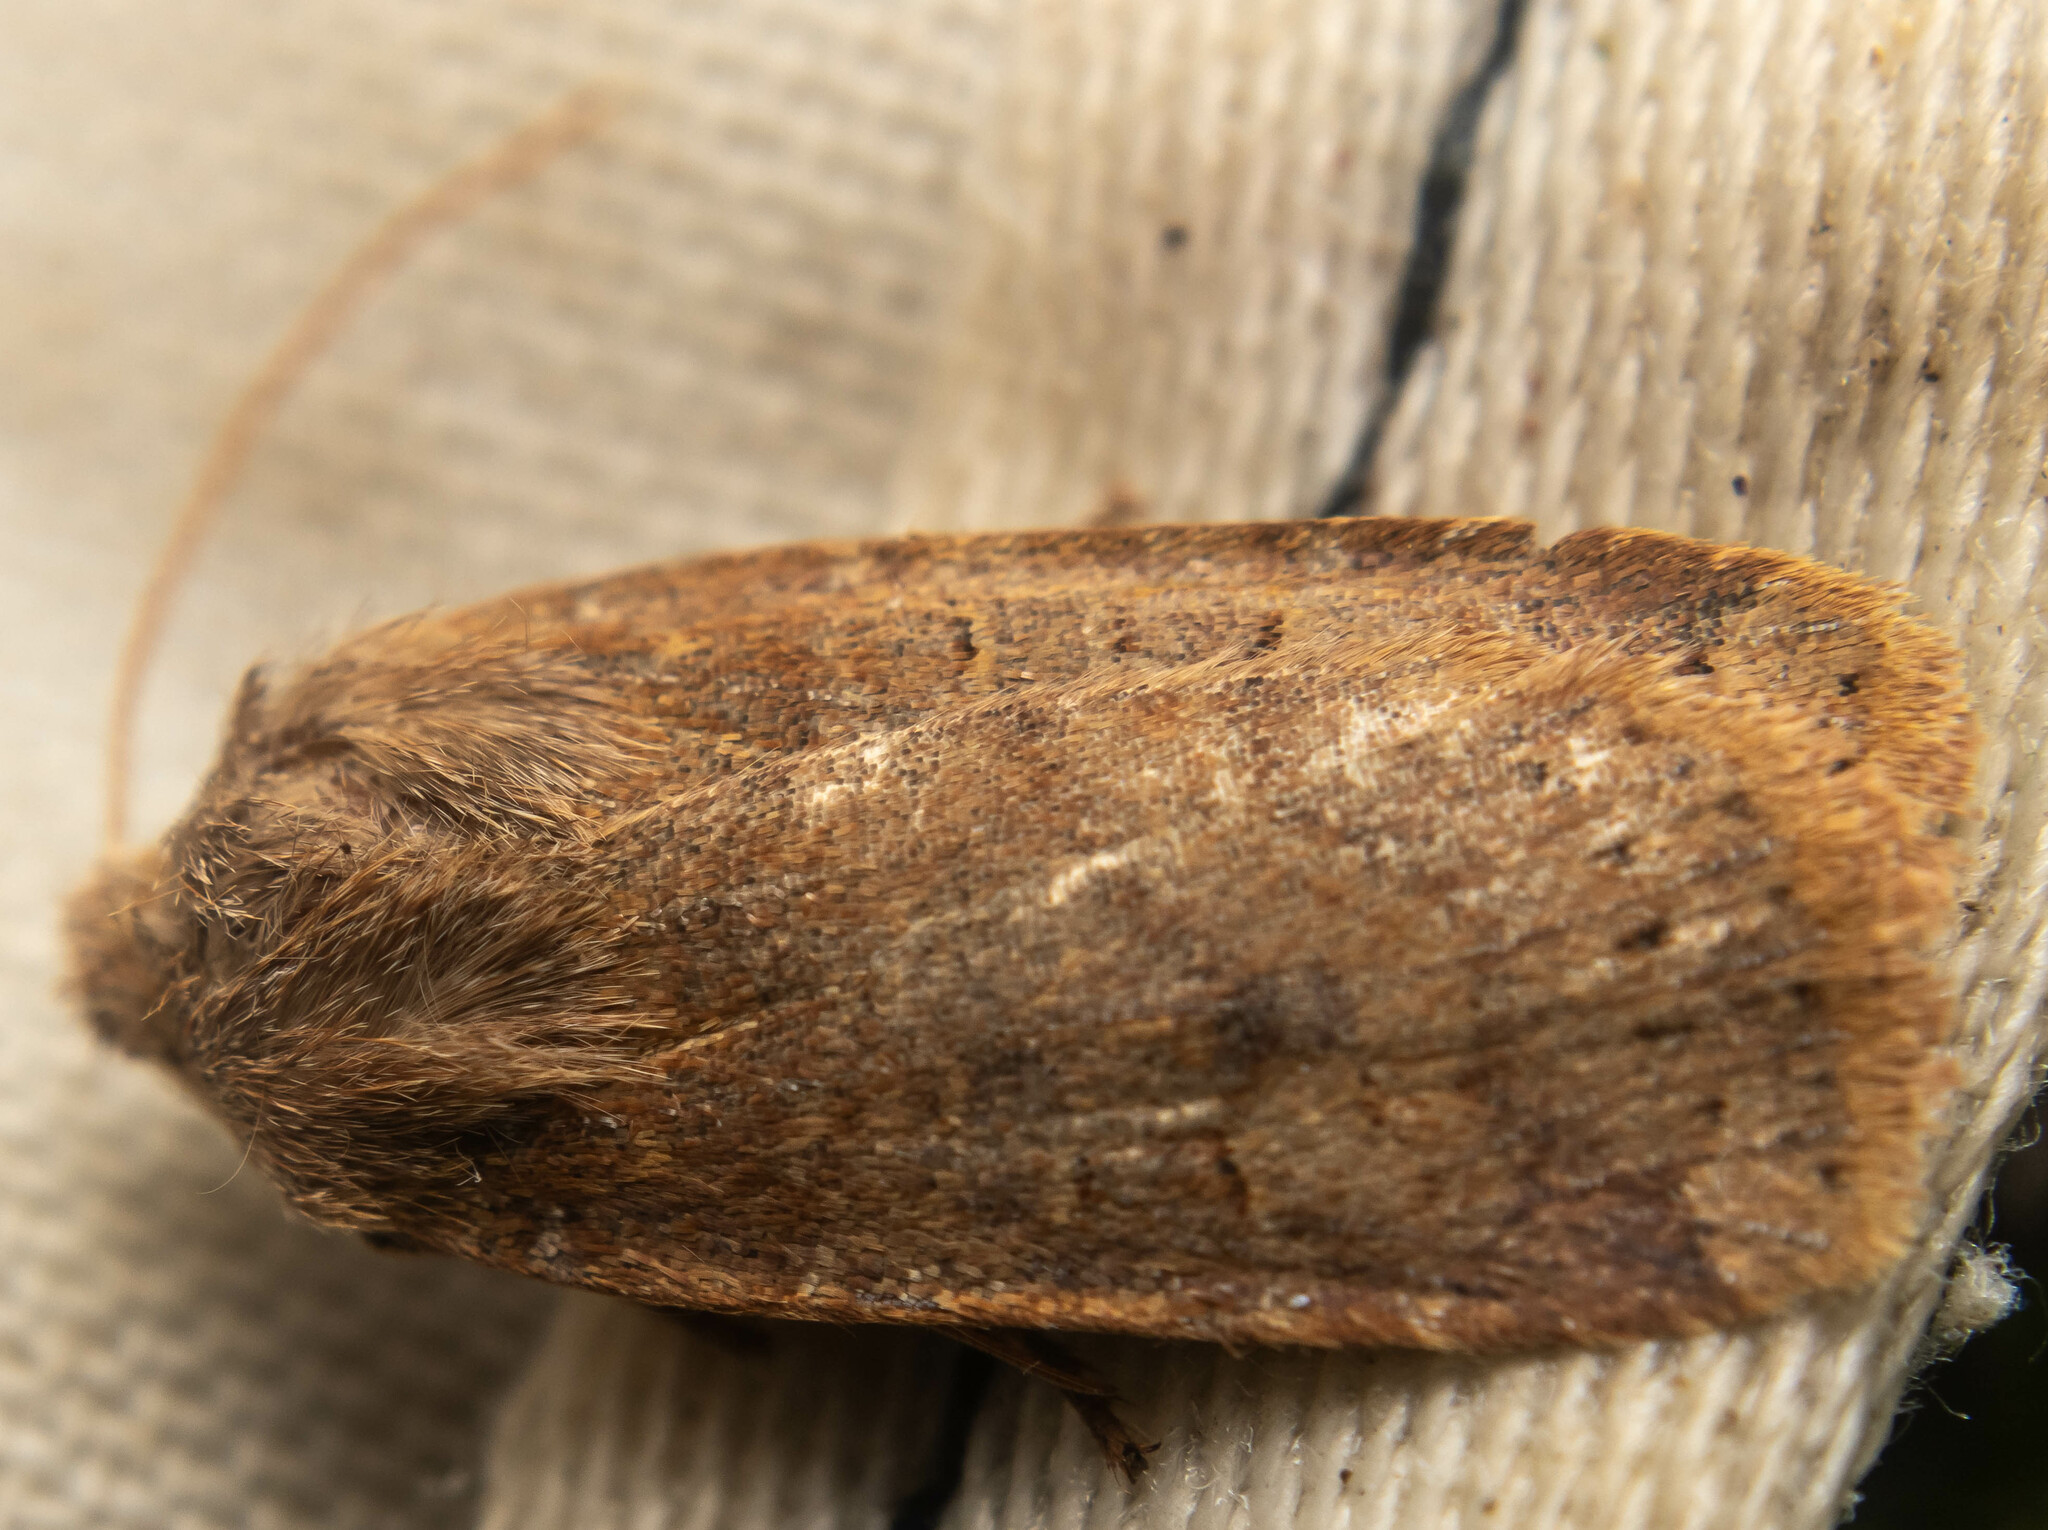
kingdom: Animalia
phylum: Arthropoda
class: Insecta
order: Lepidoptera
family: Noctuidae
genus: Conistra
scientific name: Conistra vaccinii
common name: Chestnut
